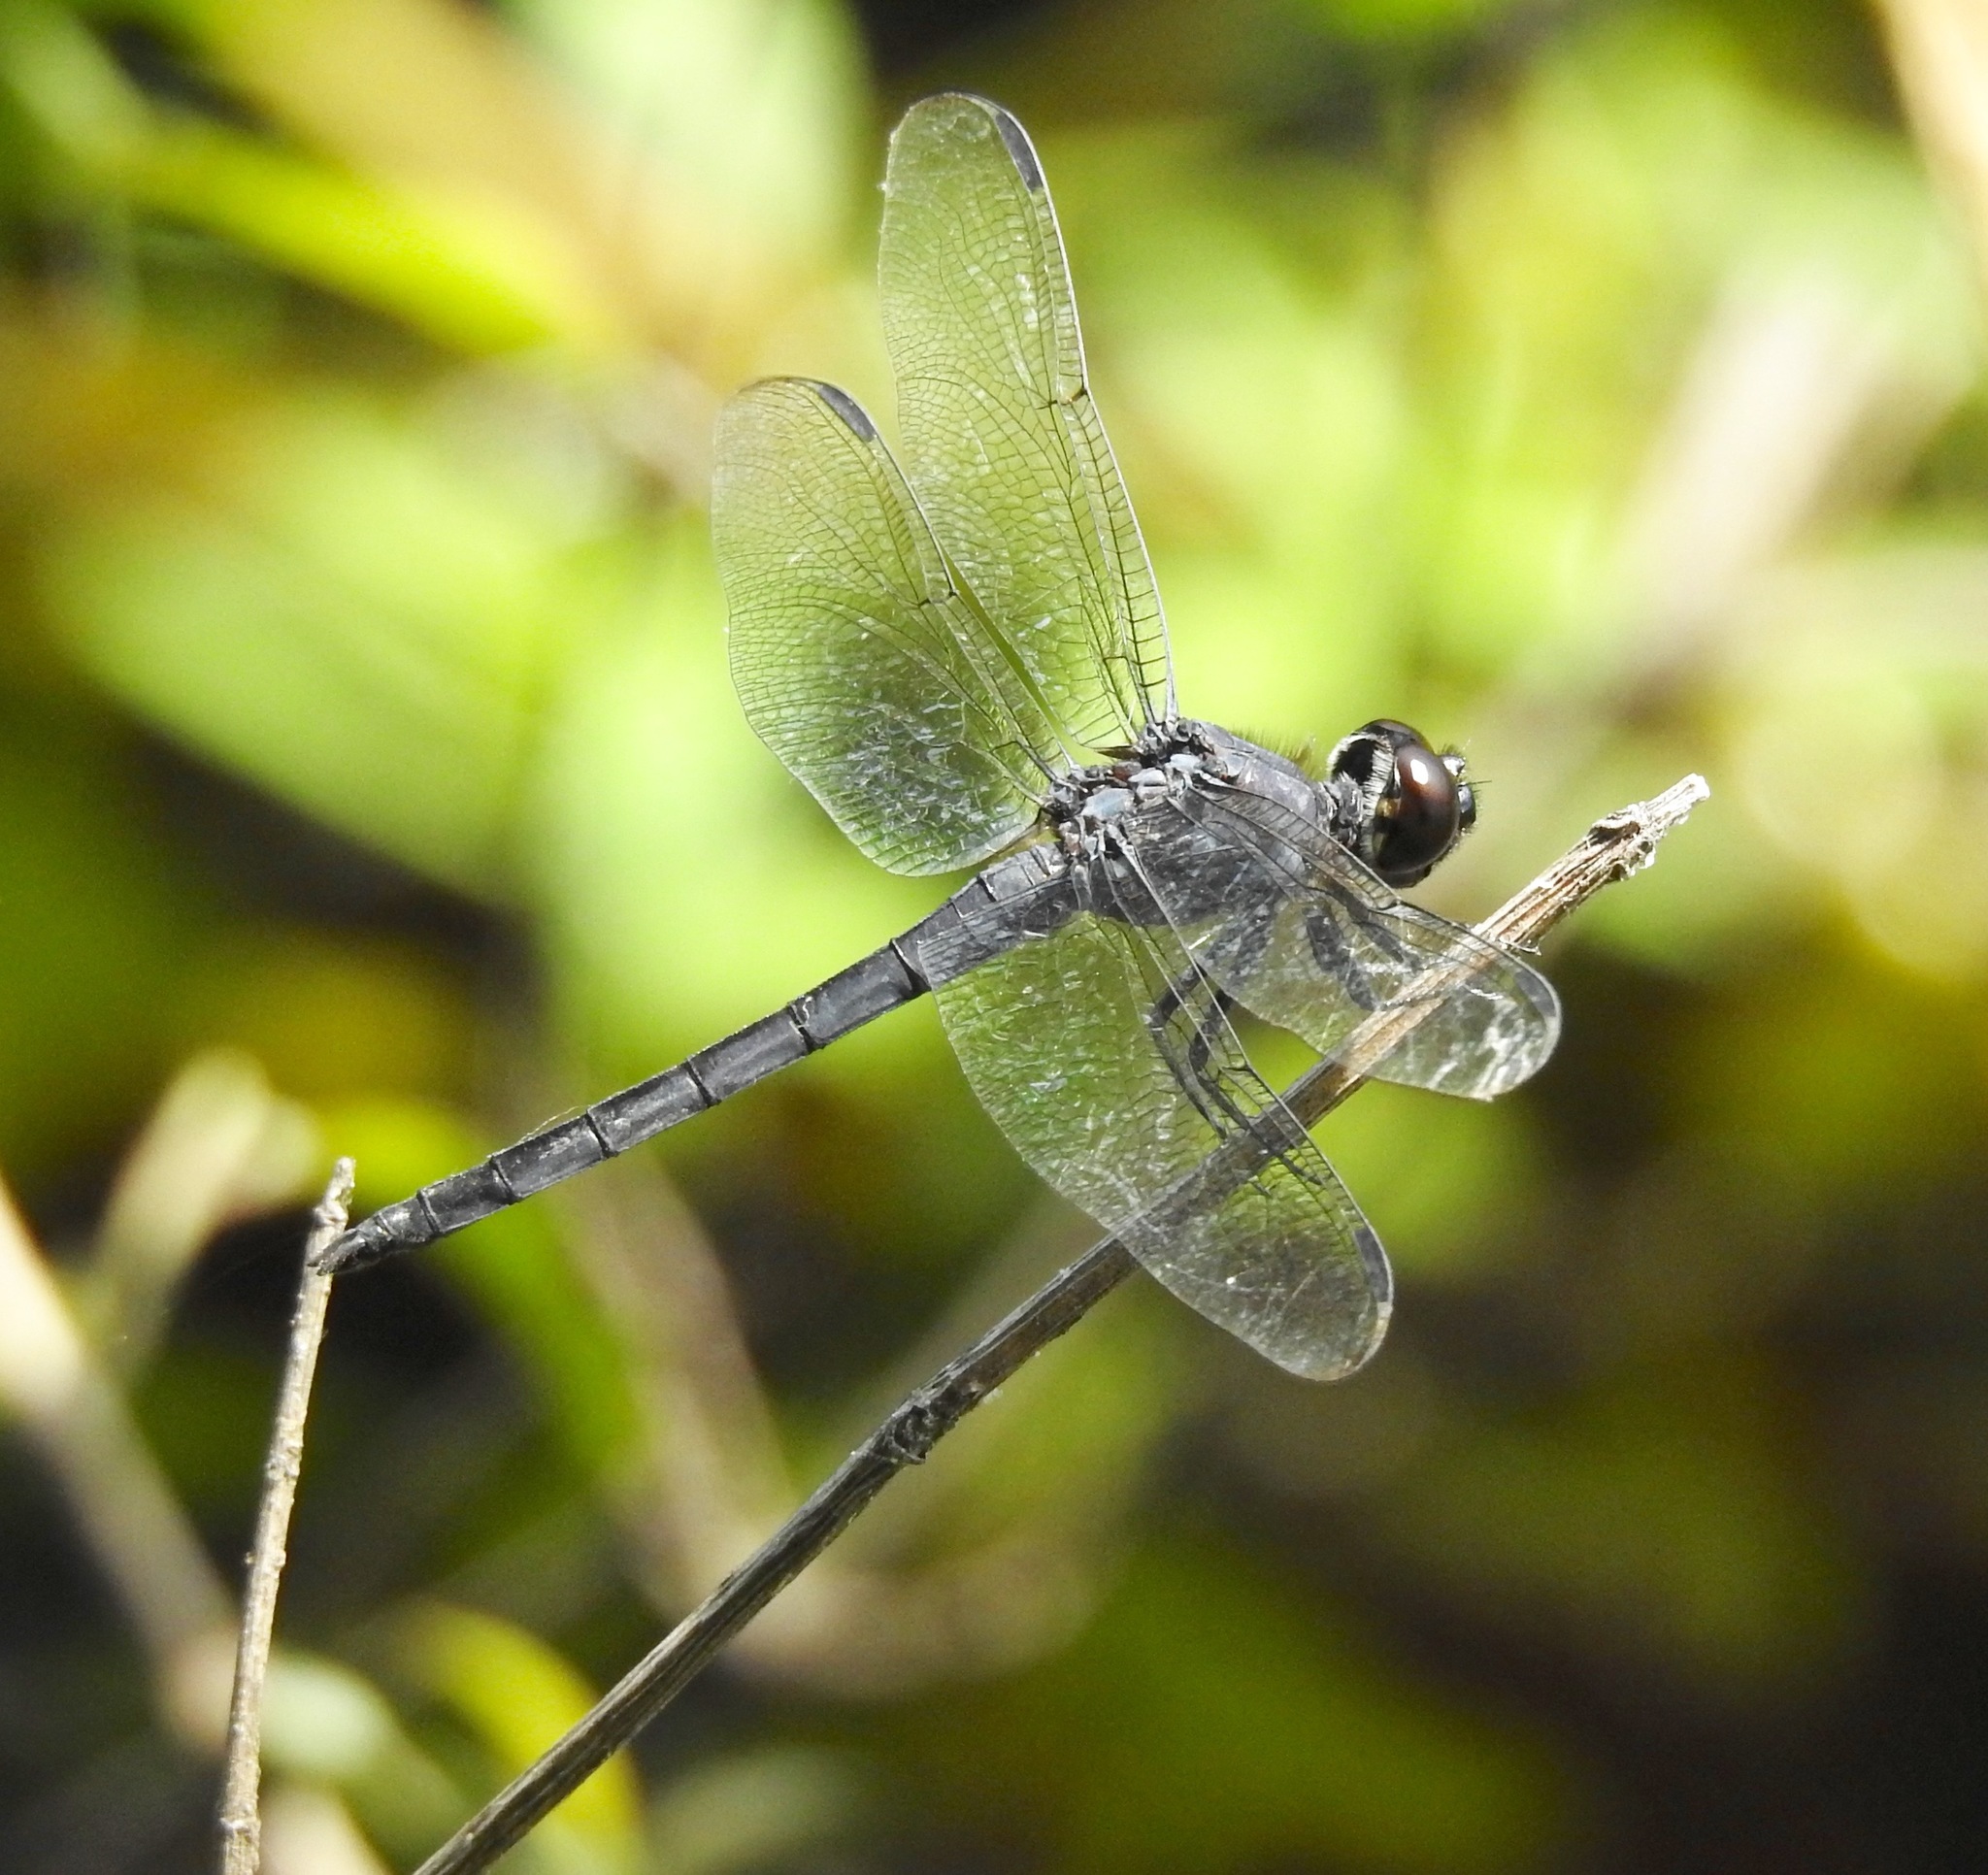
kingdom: Animalia
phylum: Arthropoda
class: Insecta
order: Odonata
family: Libellulidae
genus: Libellula
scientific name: Libellula incesta
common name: Slaty skimmer
